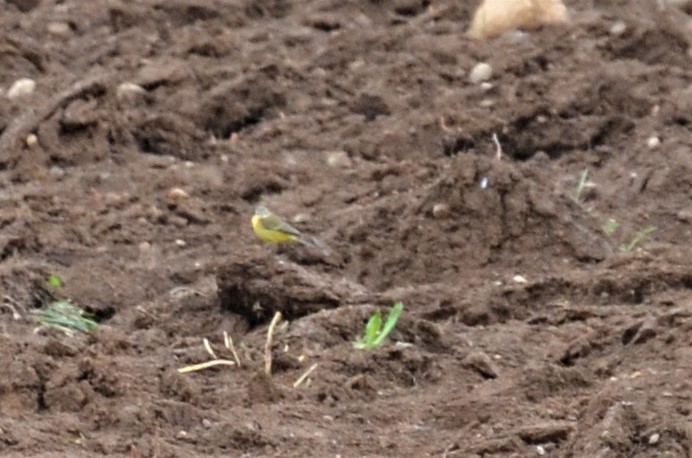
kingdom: Animalia
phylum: Chordata
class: Aves
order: Passeriformes
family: Motacillidae
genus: Motacilla
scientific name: Motacilla flava
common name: Western yellow wagtail
